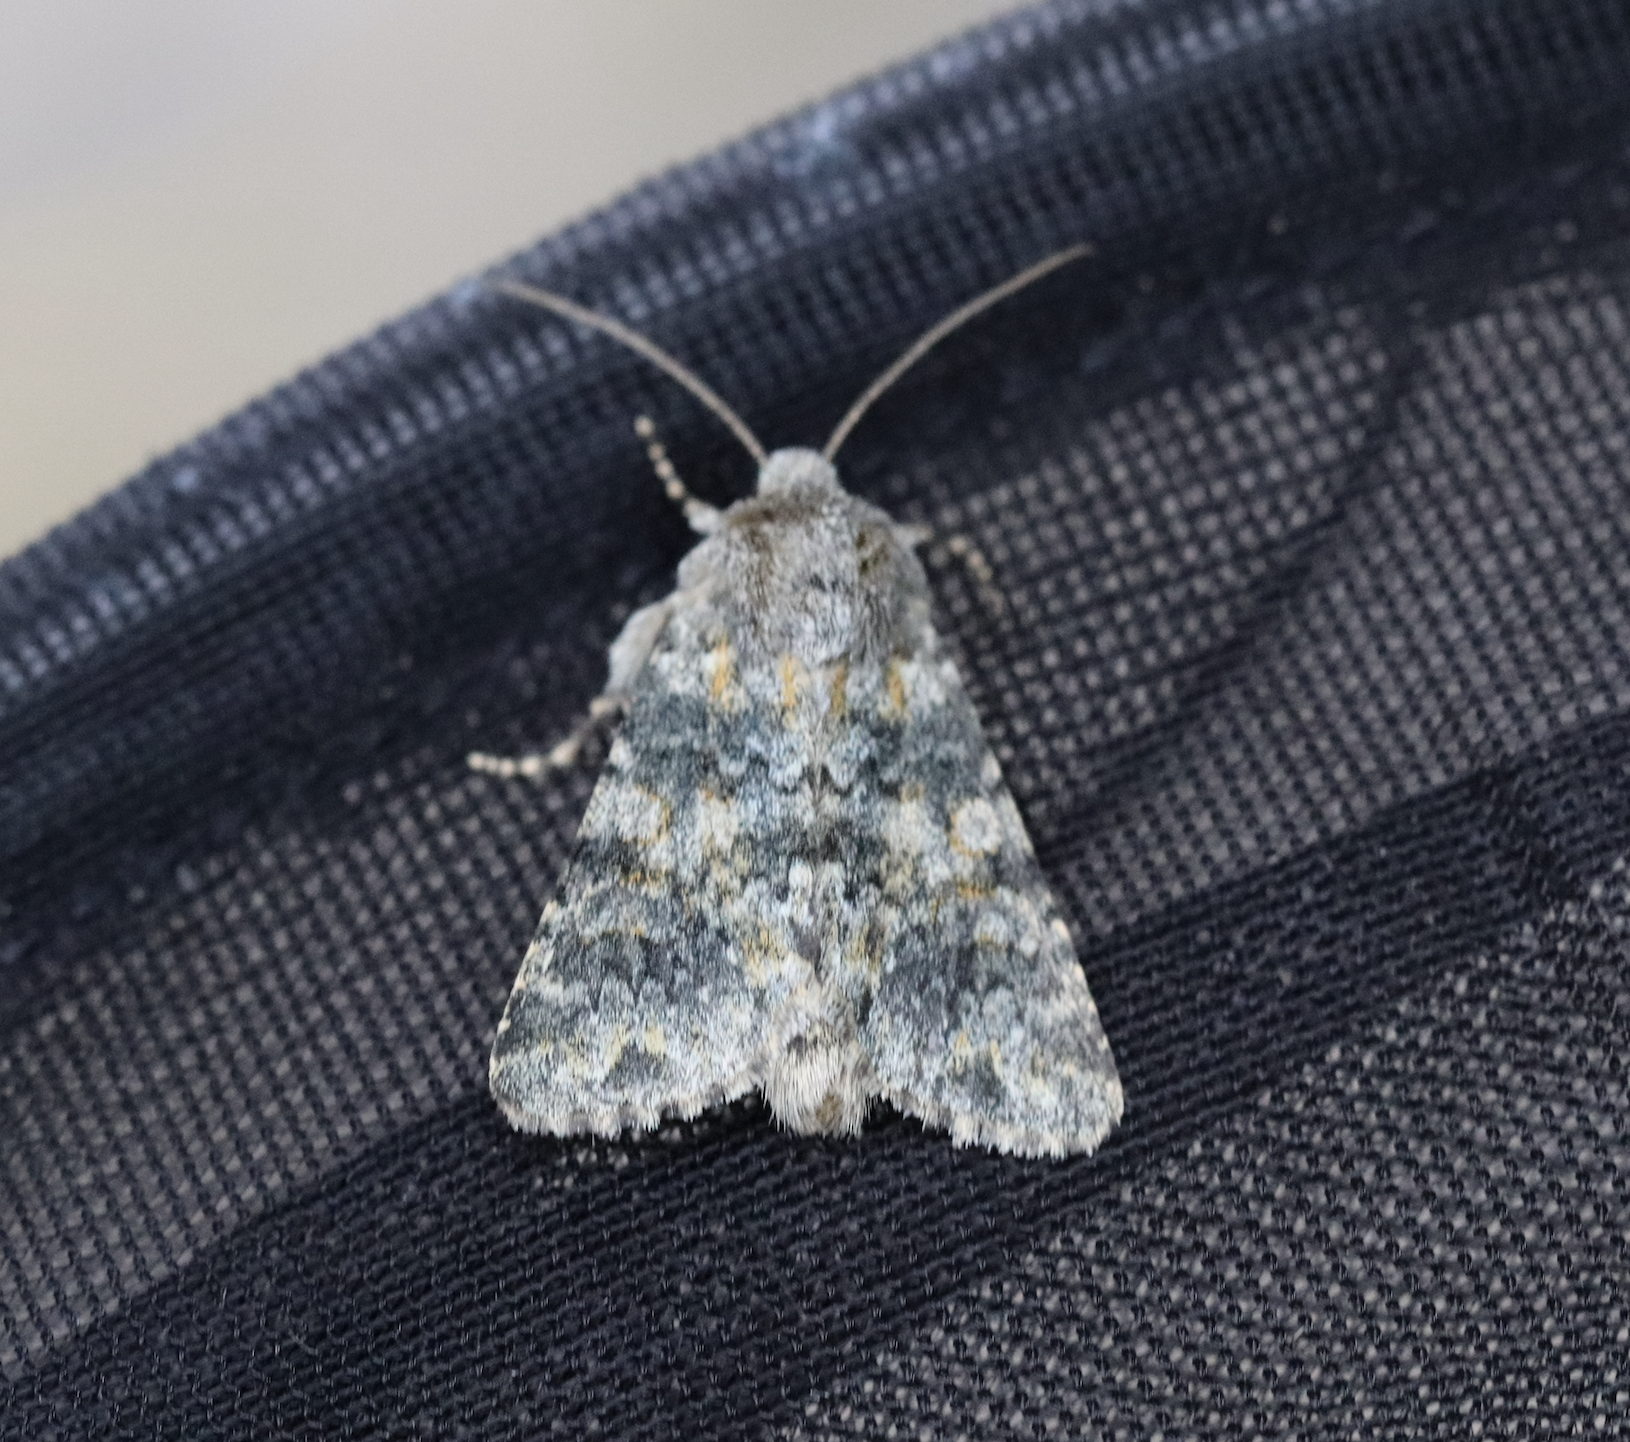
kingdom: Animalia
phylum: Arthropoda
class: Insecta
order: Lepidoptera
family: Noctuidae
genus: Hadena
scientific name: Hadena caesia
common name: Grey
